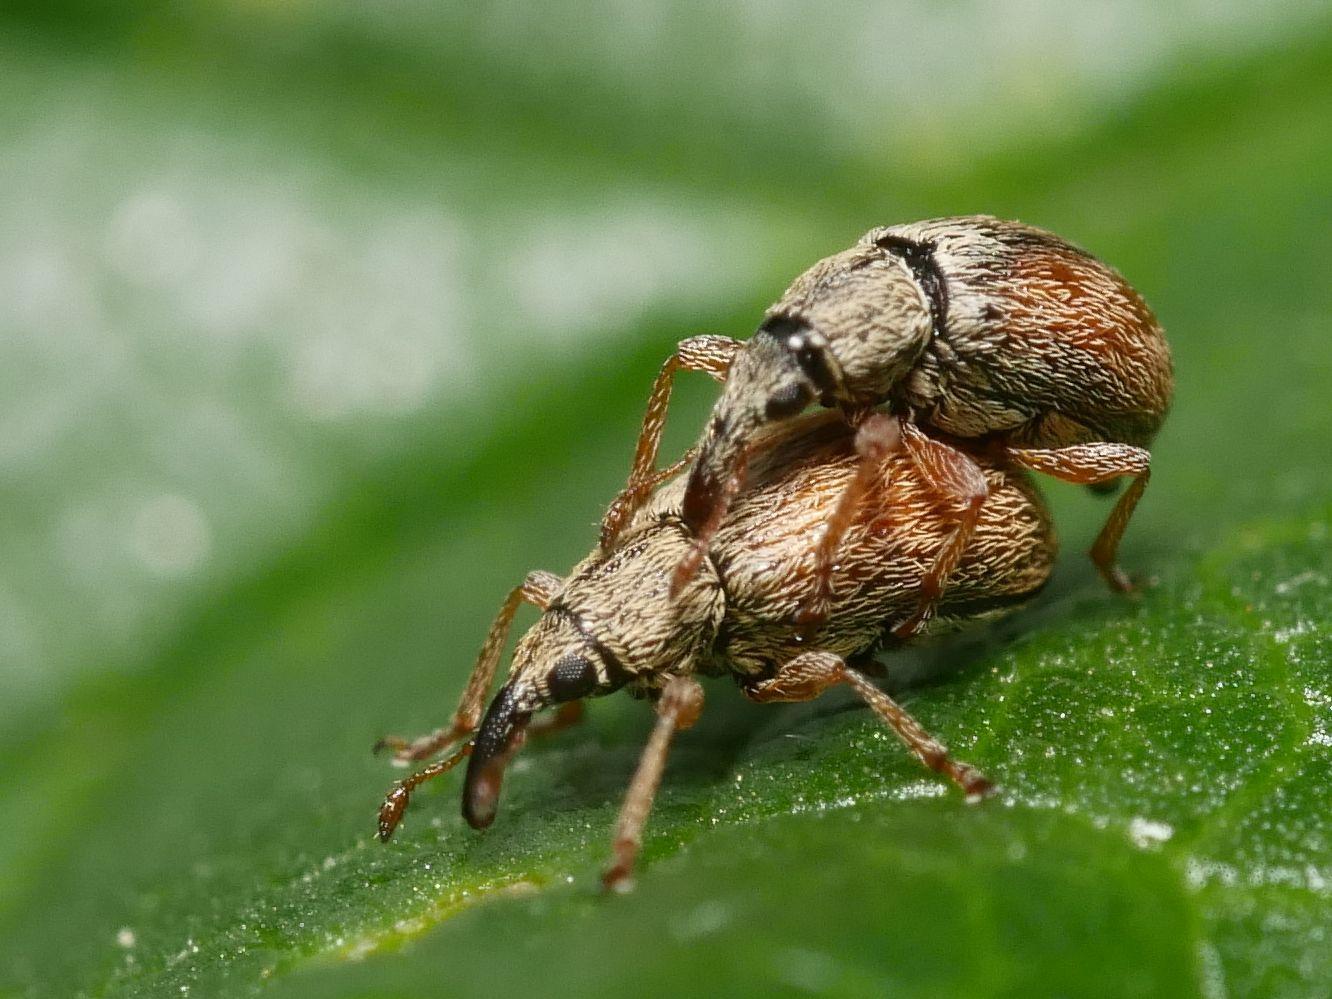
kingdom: Animalia
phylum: Arthropoda
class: Insecta
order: Coleoptera
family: Apionidae
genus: Malvapion
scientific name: Malvapion malvae
